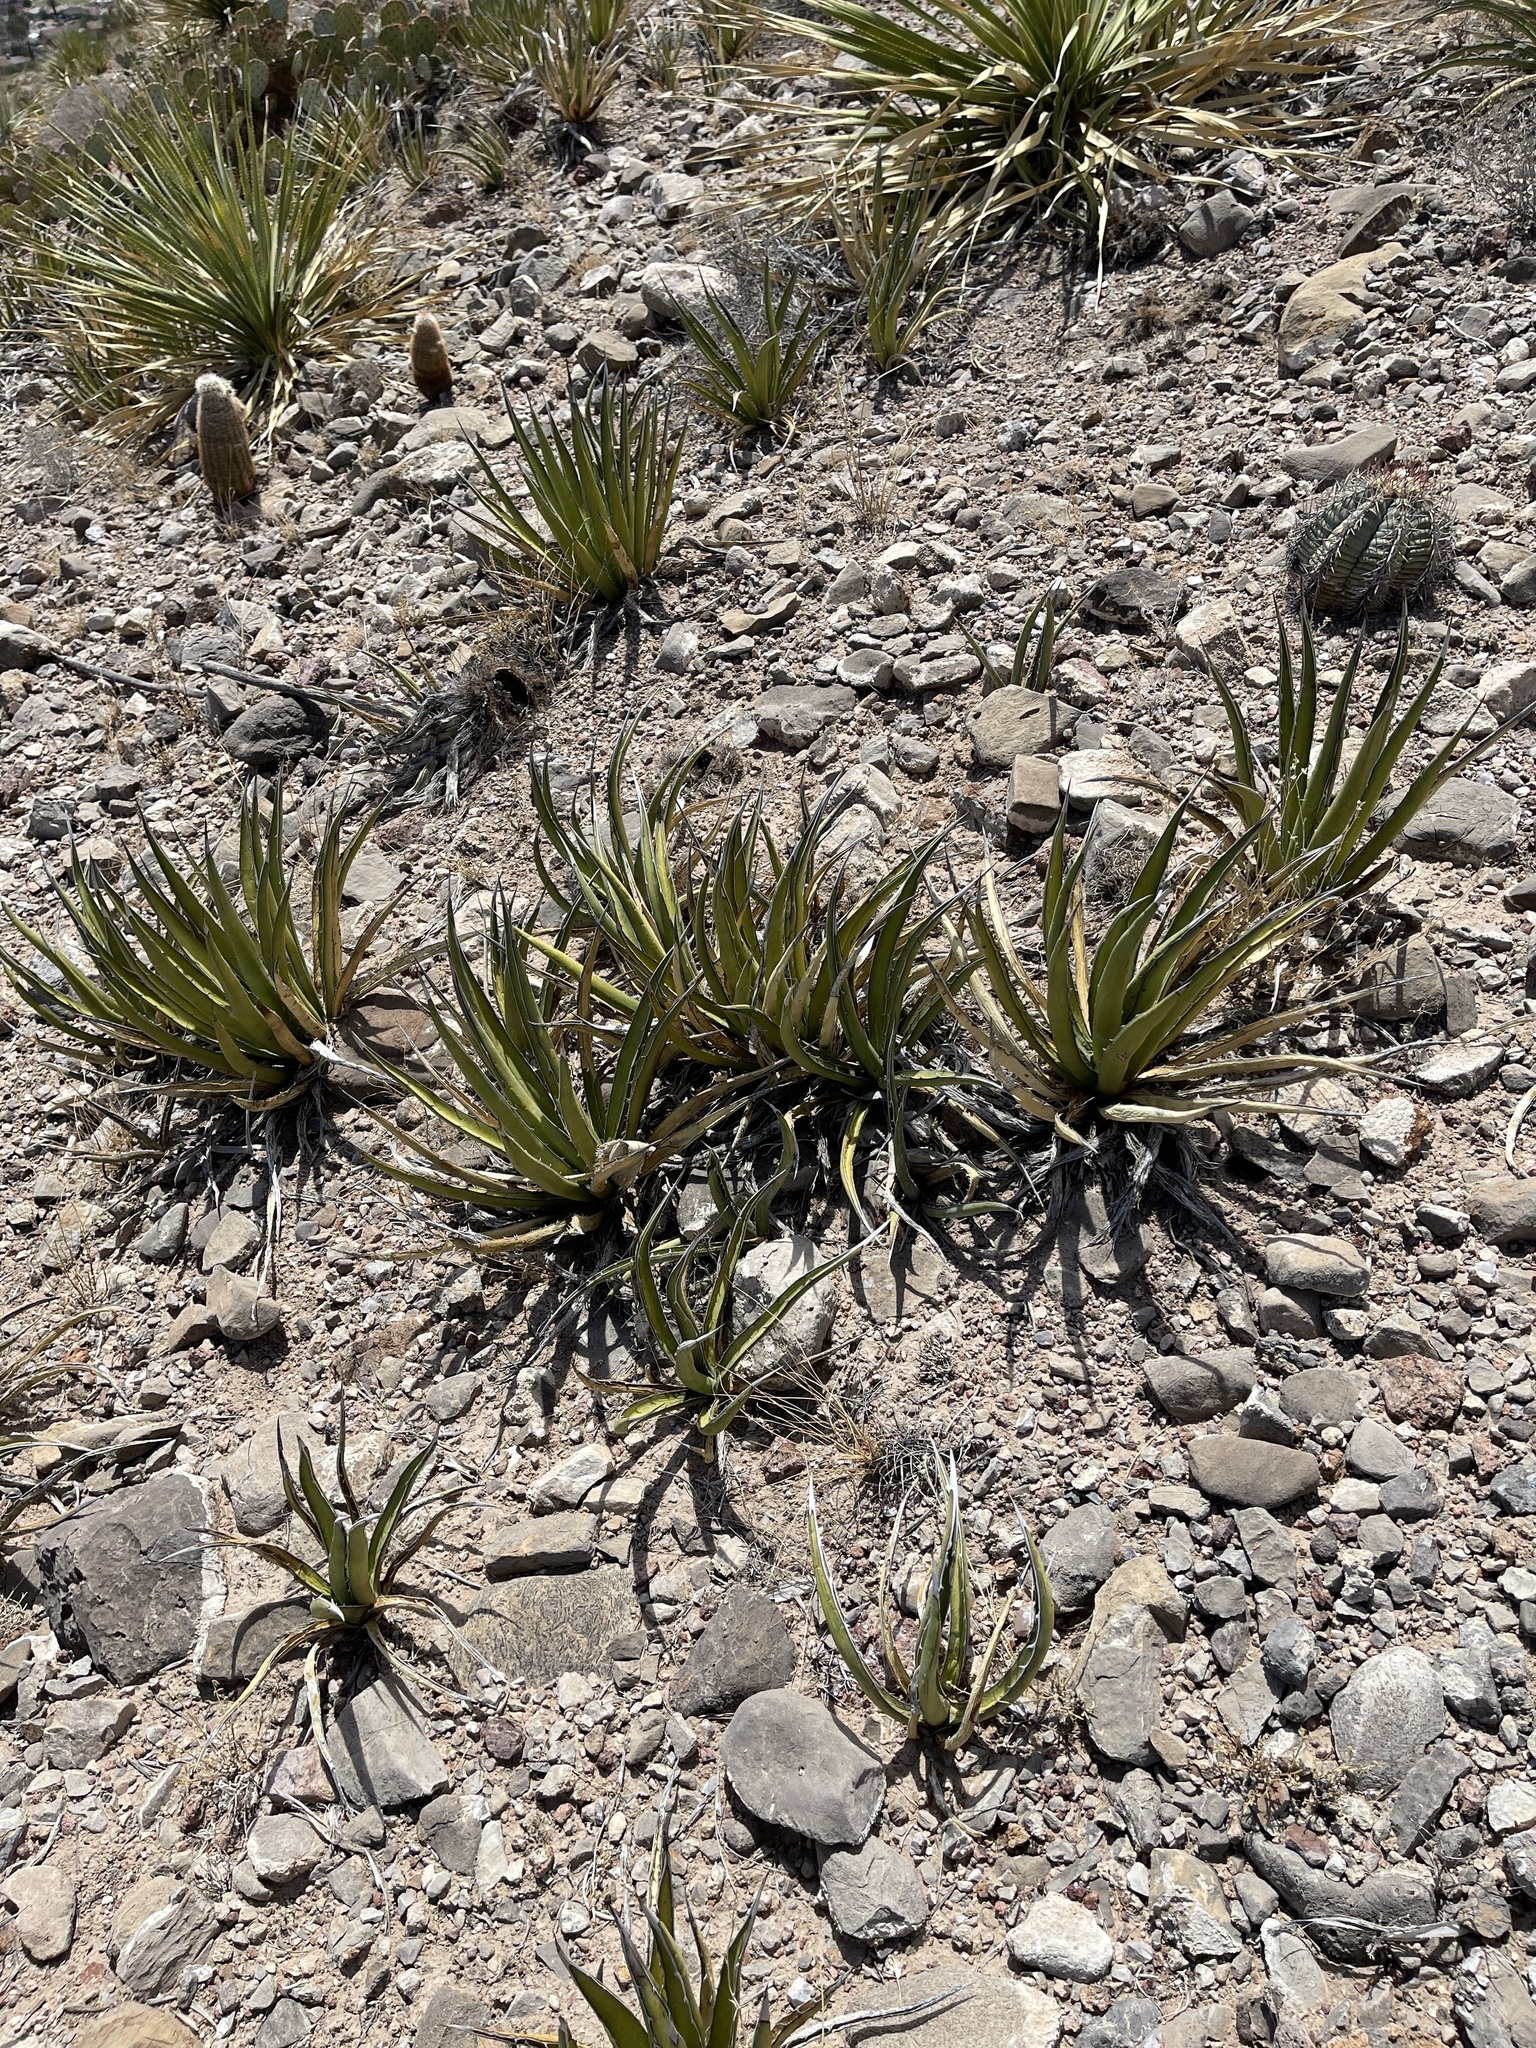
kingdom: Plantae
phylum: Tracheophyta
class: Liliopsida
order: Asparagales
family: Asparagaceae
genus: Agave
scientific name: Agave lechuguilla
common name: Lecheguilla agave
